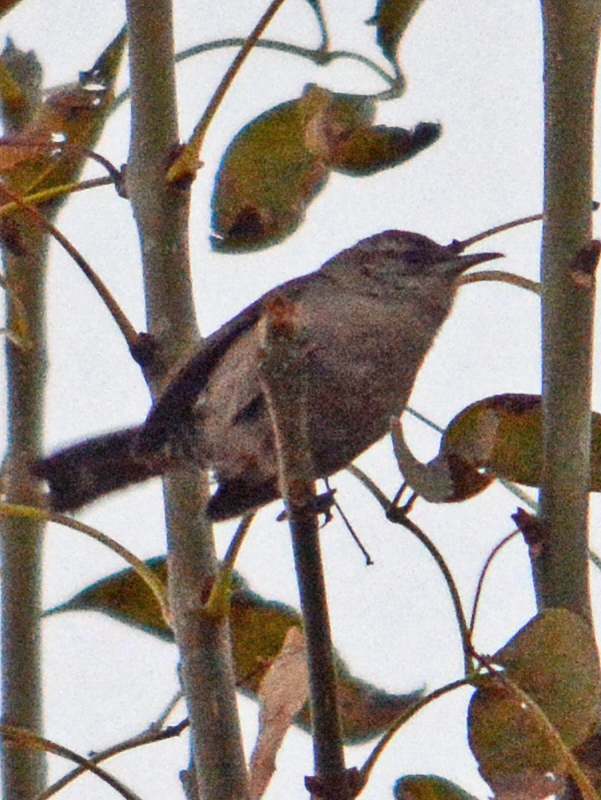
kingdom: Animalia
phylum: Chordata
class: Aves
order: Passeriformes
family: Troglodytidae
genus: Thryomanes
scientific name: Thryomanes bewickii
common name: Bewick's wren
